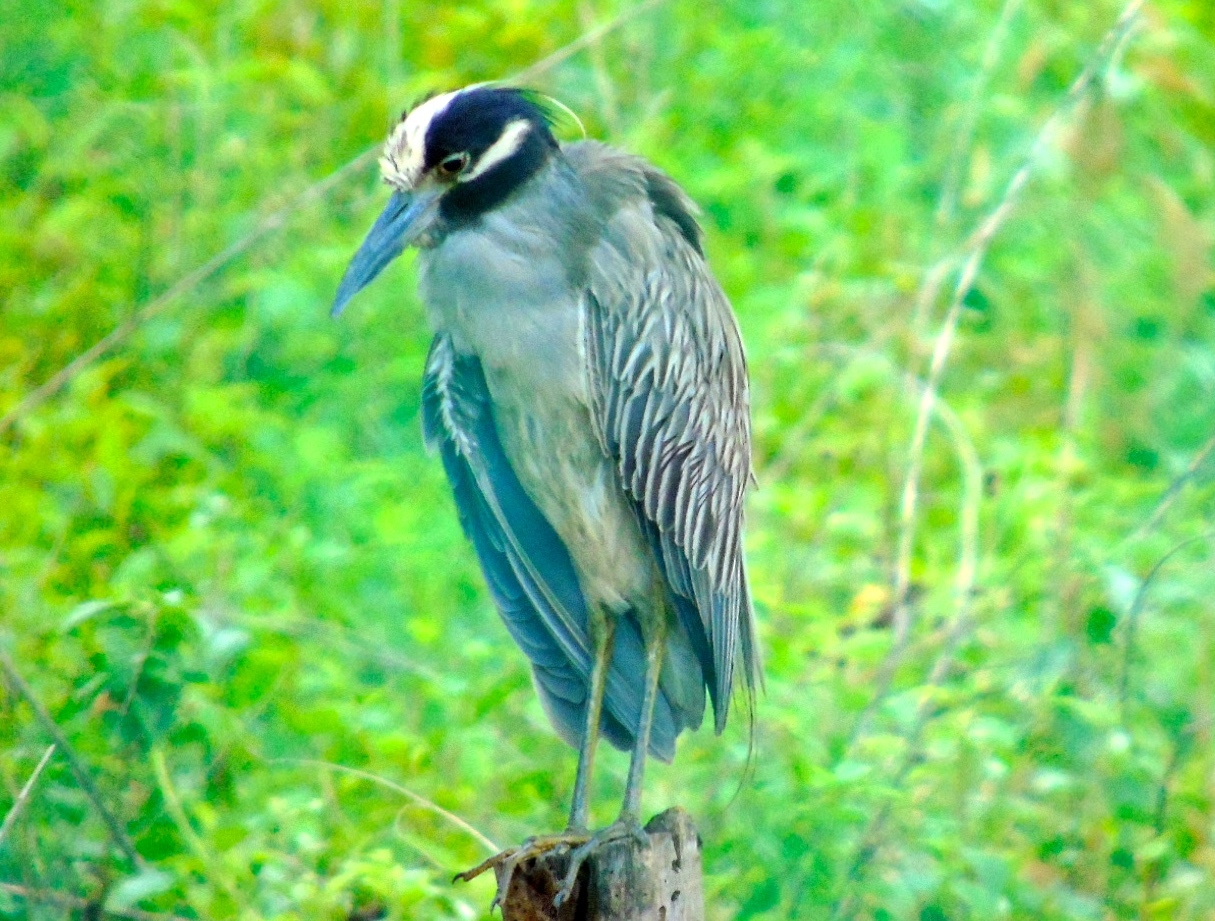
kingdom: Animalia
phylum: Chordata
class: Aves
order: Pelecaniformes
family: Ardeidae
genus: Nyctanassa
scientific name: Nyctanassa violacea
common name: Yellow-crowned night heron
